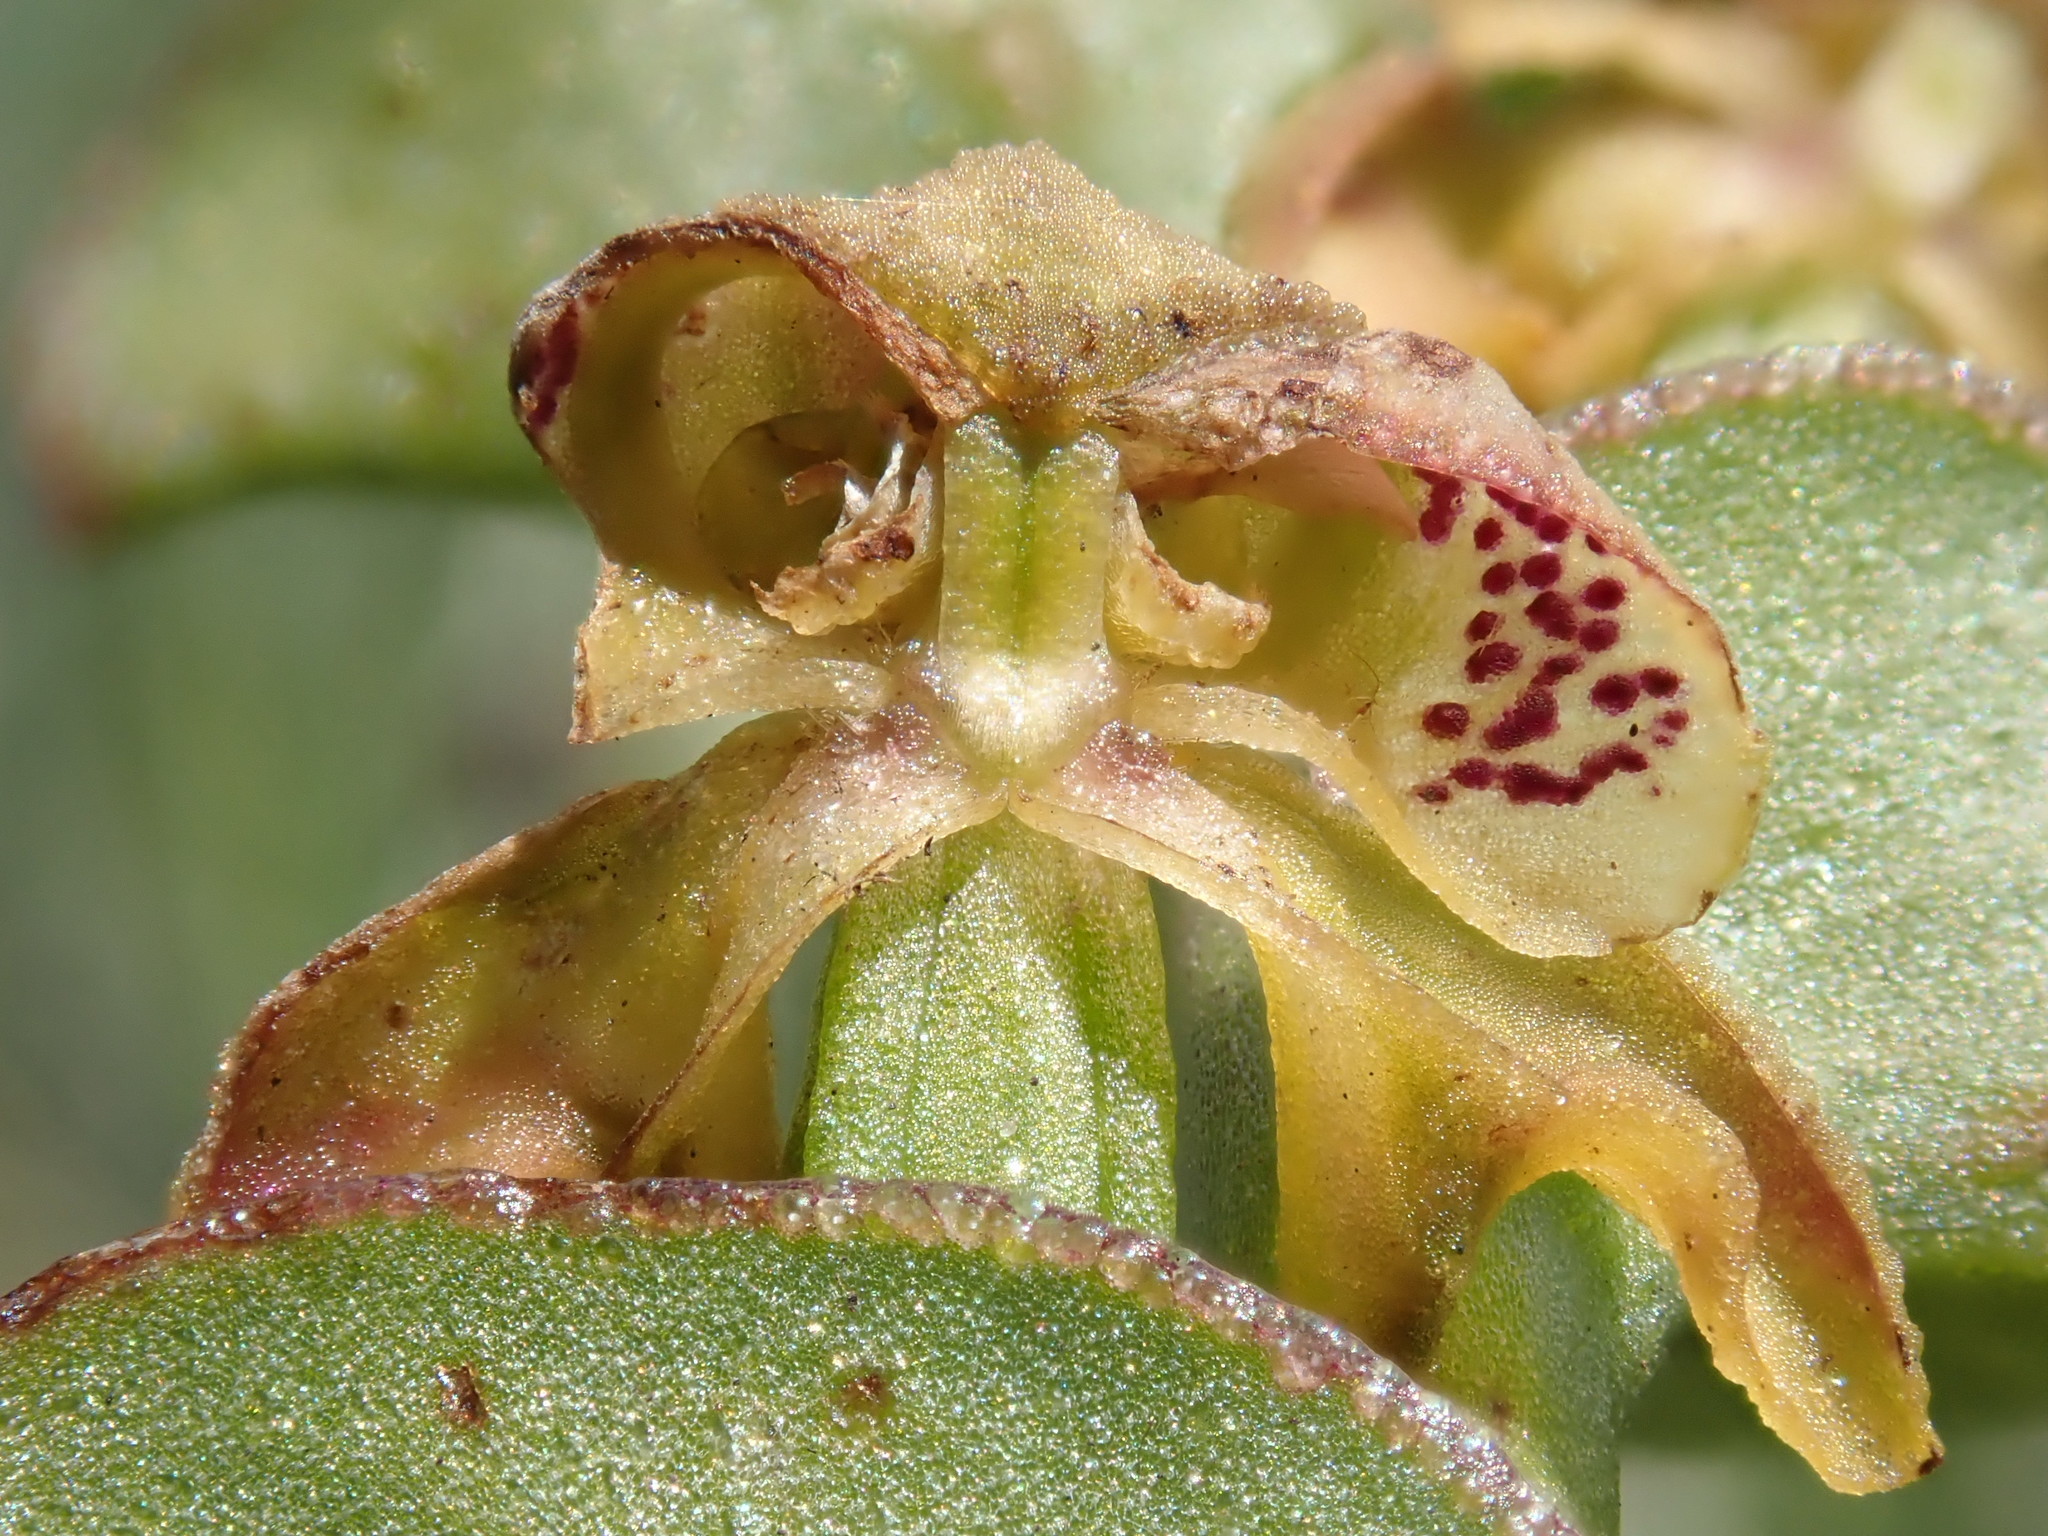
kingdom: Plantae
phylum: Tracheophyta
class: Liliopsida
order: Asparagales
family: Orchidaceae
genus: Disperis
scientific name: Disperis renibractea
